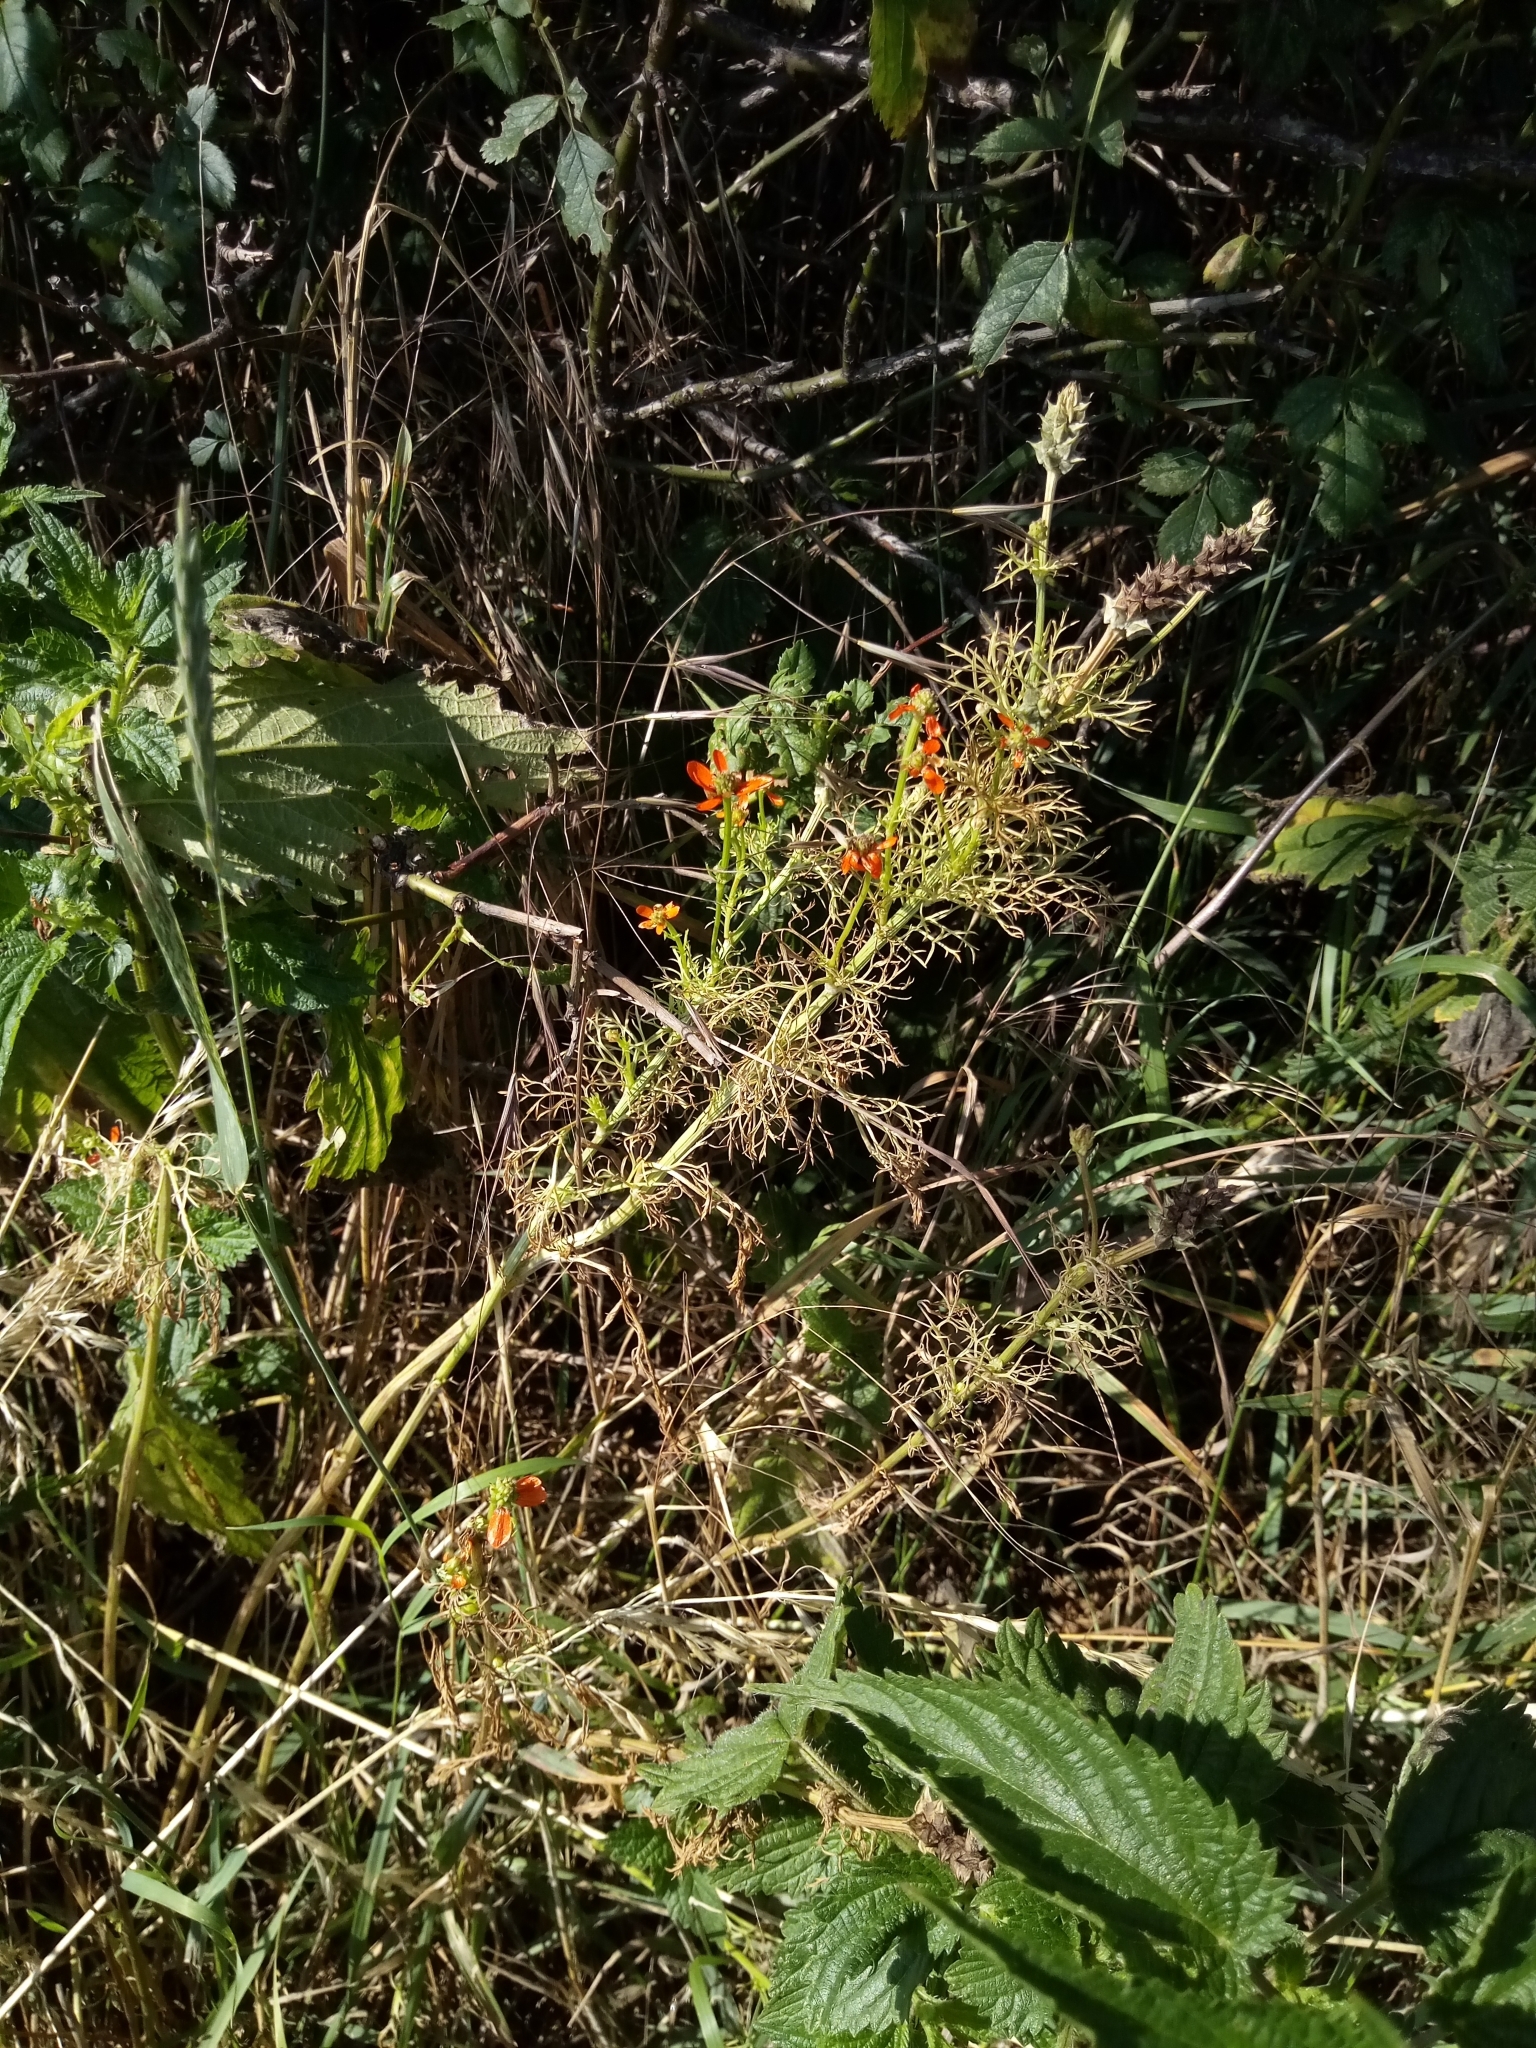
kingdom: Plantae
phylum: Tracheophyta
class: Magnoliopsida
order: Ranunculales
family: Ranunculaceae
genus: Adonis
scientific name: Adonis aestivalis
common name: Summer pheasant's-eye
